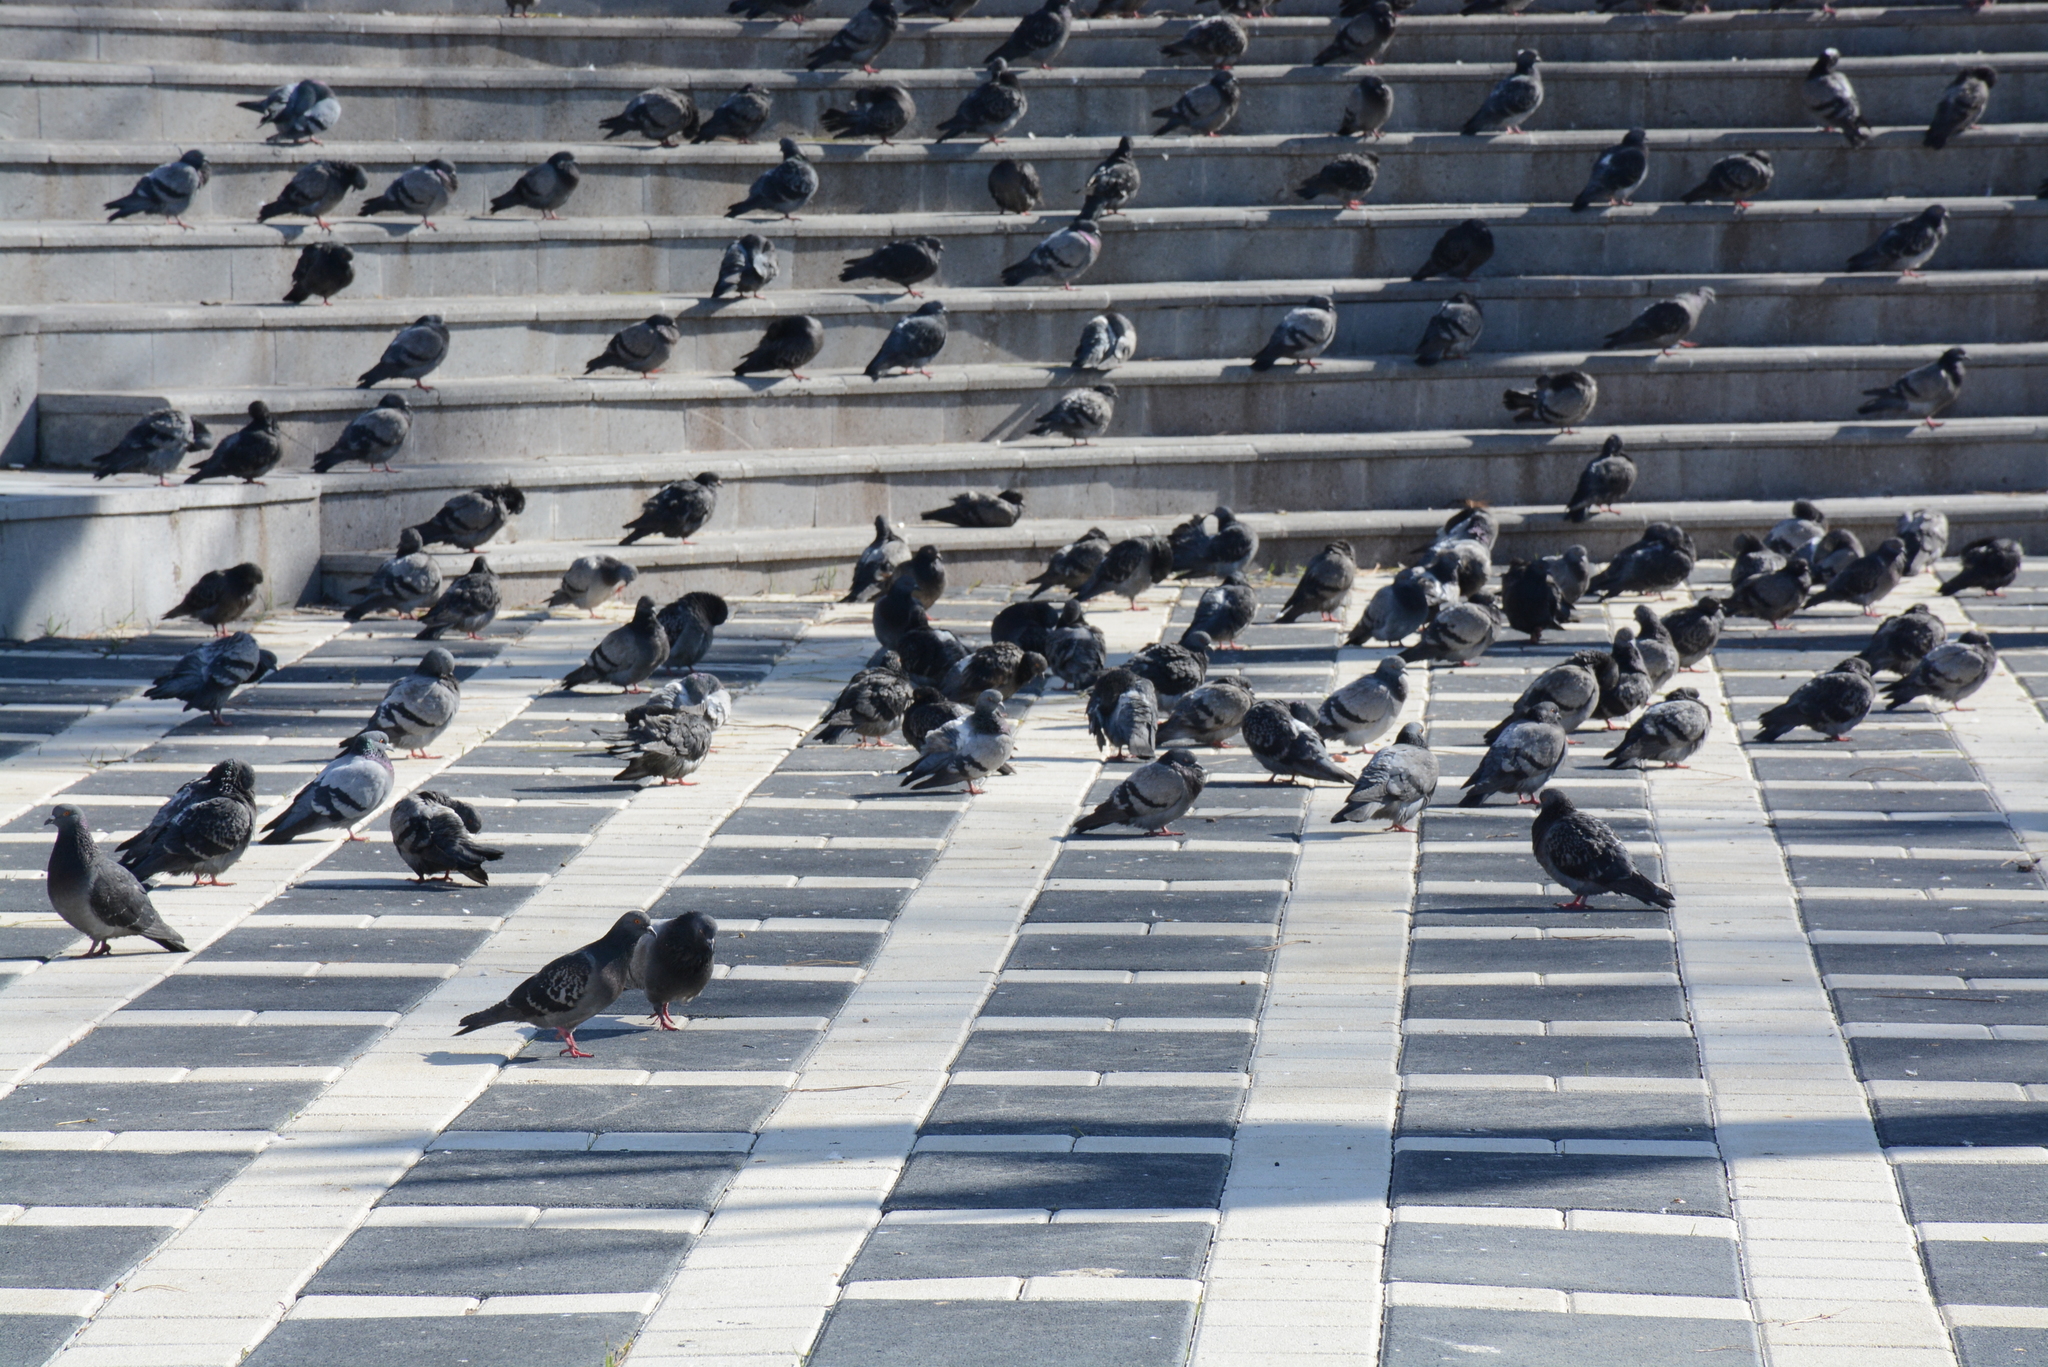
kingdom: Animalia
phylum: Chordata
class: Aves
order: Columbiformes
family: Columbidae
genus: Columba
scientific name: Columba livia
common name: Rock pigeon
